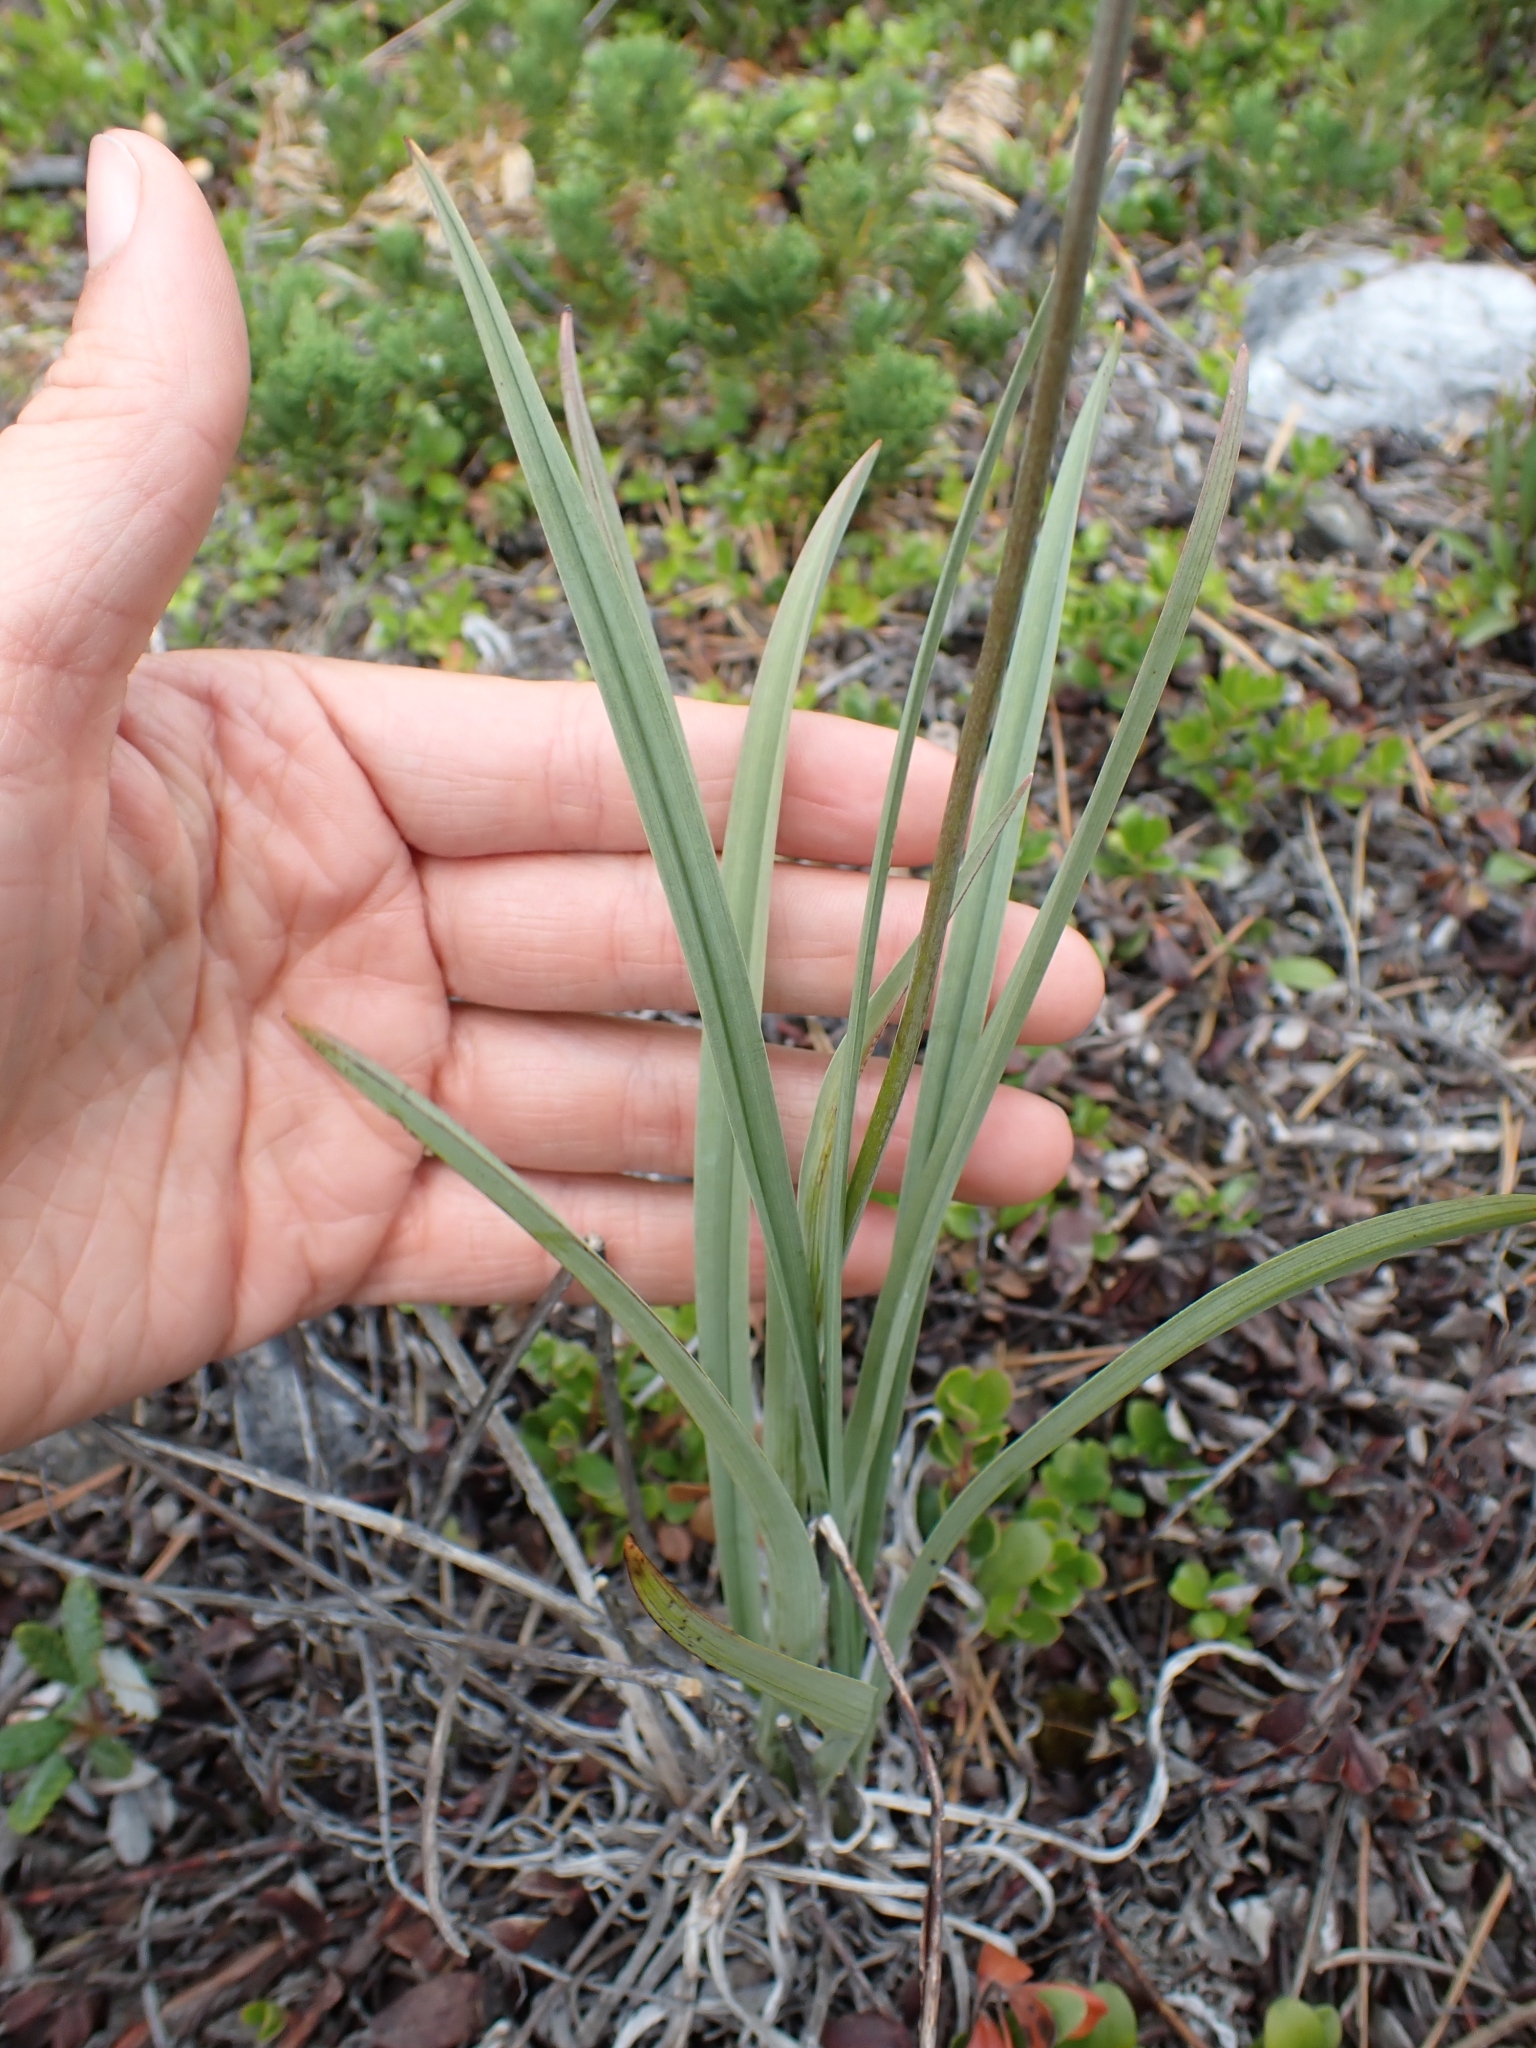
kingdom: Plantae
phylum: Tracheophyta
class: Liliopsida
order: Liliales
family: Melanthiaceae
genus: Anticlea
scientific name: Anticlea elegans
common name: Mountain death camas
